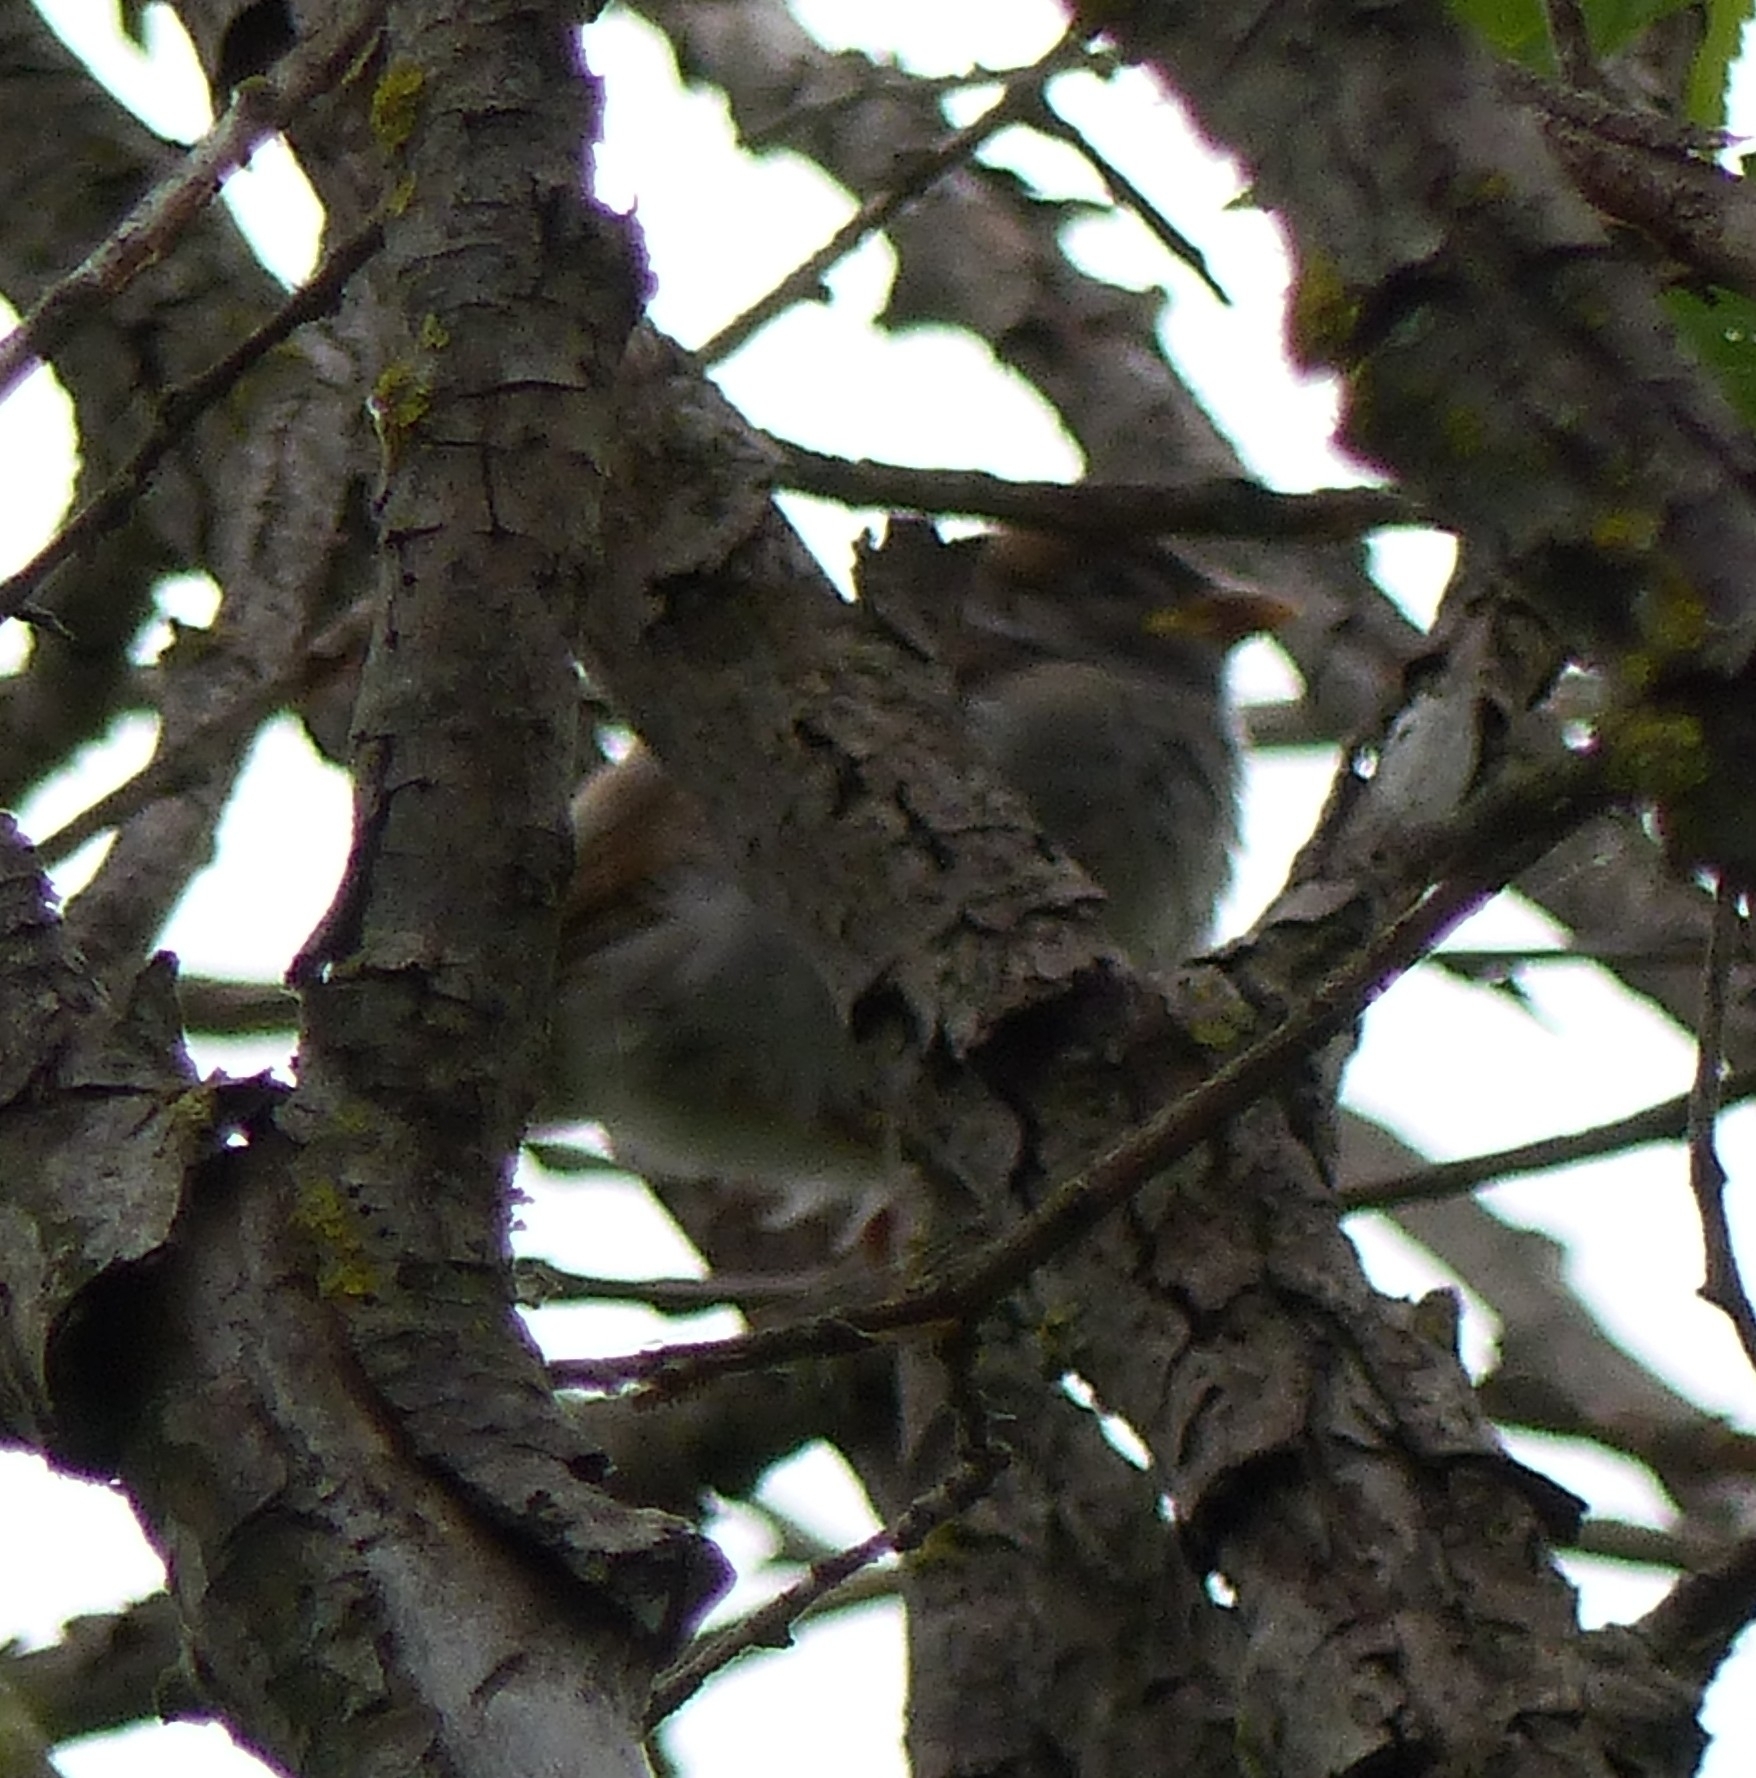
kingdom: Animalia
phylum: Chordata
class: Aves
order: Passeriformes
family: Passeridae
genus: Passer
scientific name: Passer domesticus
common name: House sparrow
